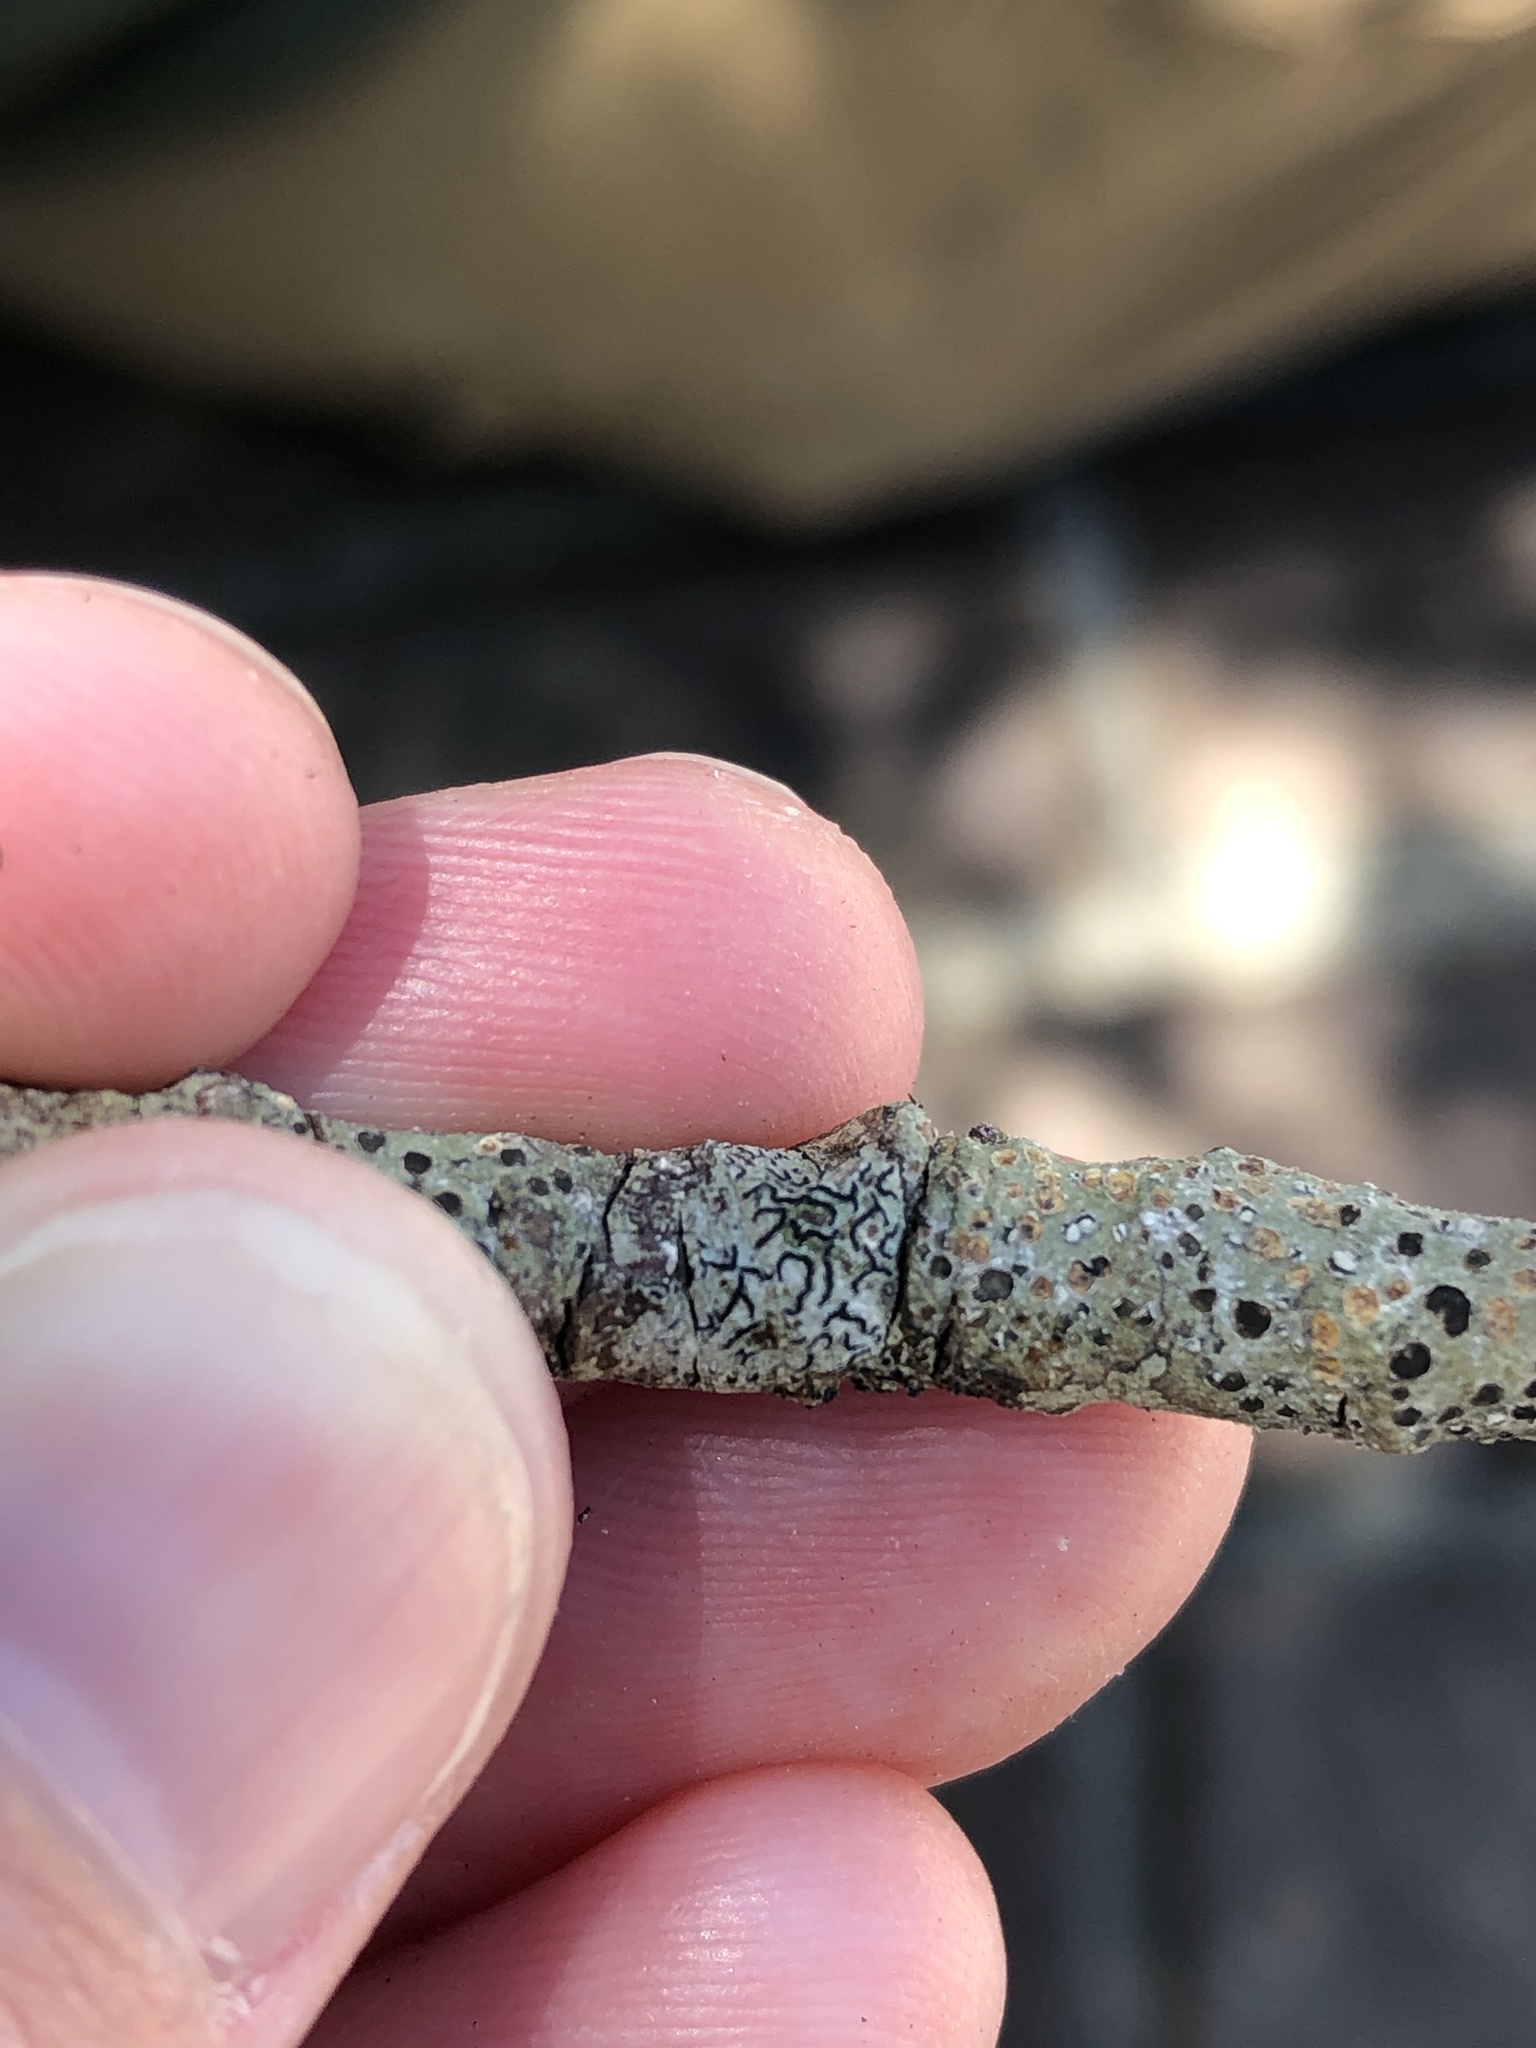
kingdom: Fungi
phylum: Ascomycota
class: Lecanoromycetes
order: Ostropales
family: Graphidaceae
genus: Graphis
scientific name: Graphis scripta
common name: Script lichen
